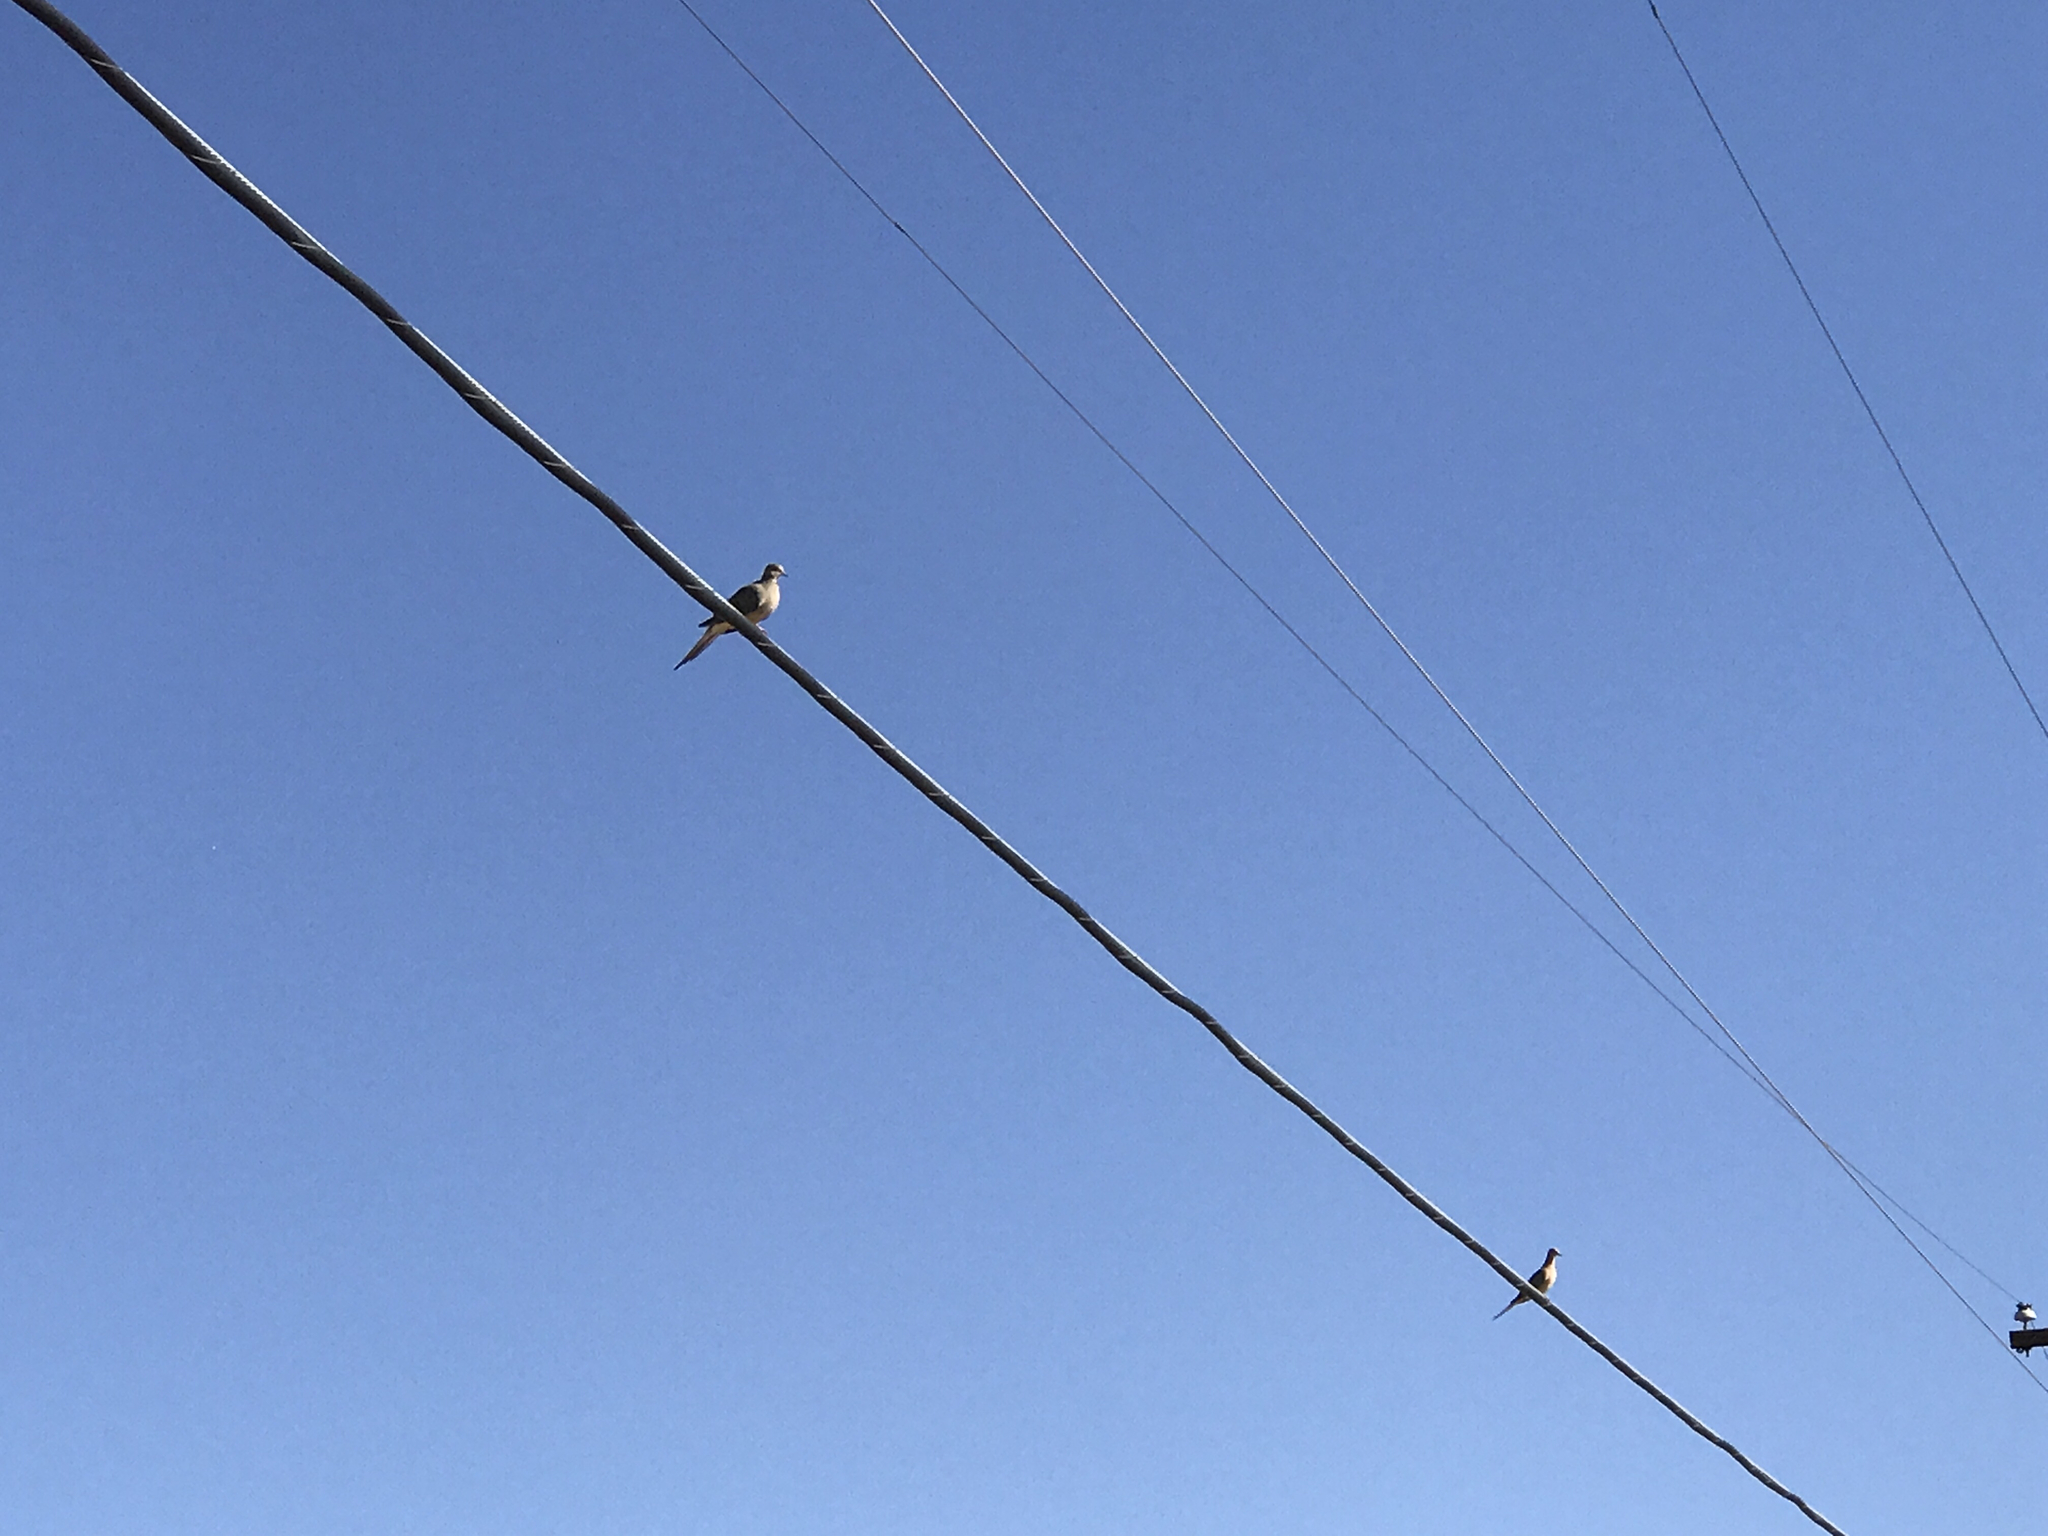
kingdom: Animalia
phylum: Chordata
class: Aves
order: Columbiformes
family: Columbidae
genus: Zenaida
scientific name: Zenaida macroura
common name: Mourning dove
